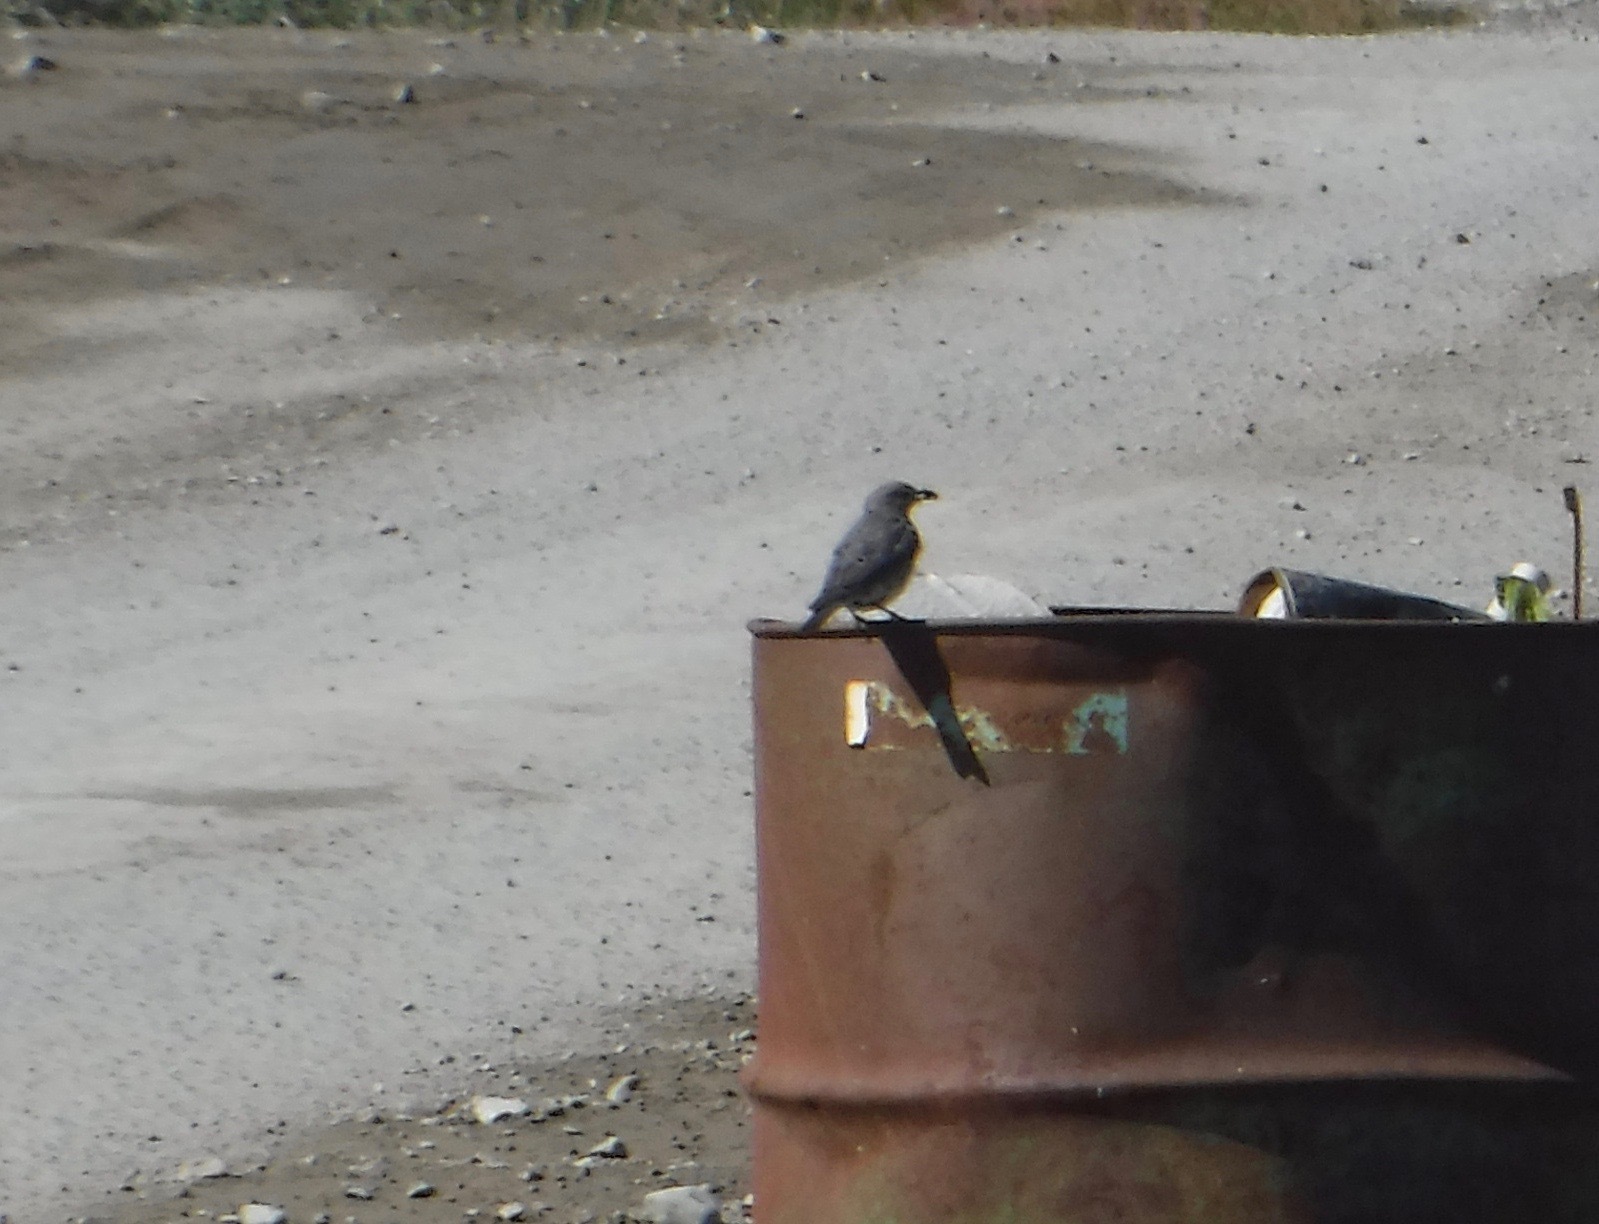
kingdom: Animalia
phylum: Chordata
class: Aves
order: Passeriformes
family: Turdidae
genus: Sialia
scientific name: Sialia currucoides
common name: Mountain bluebird
